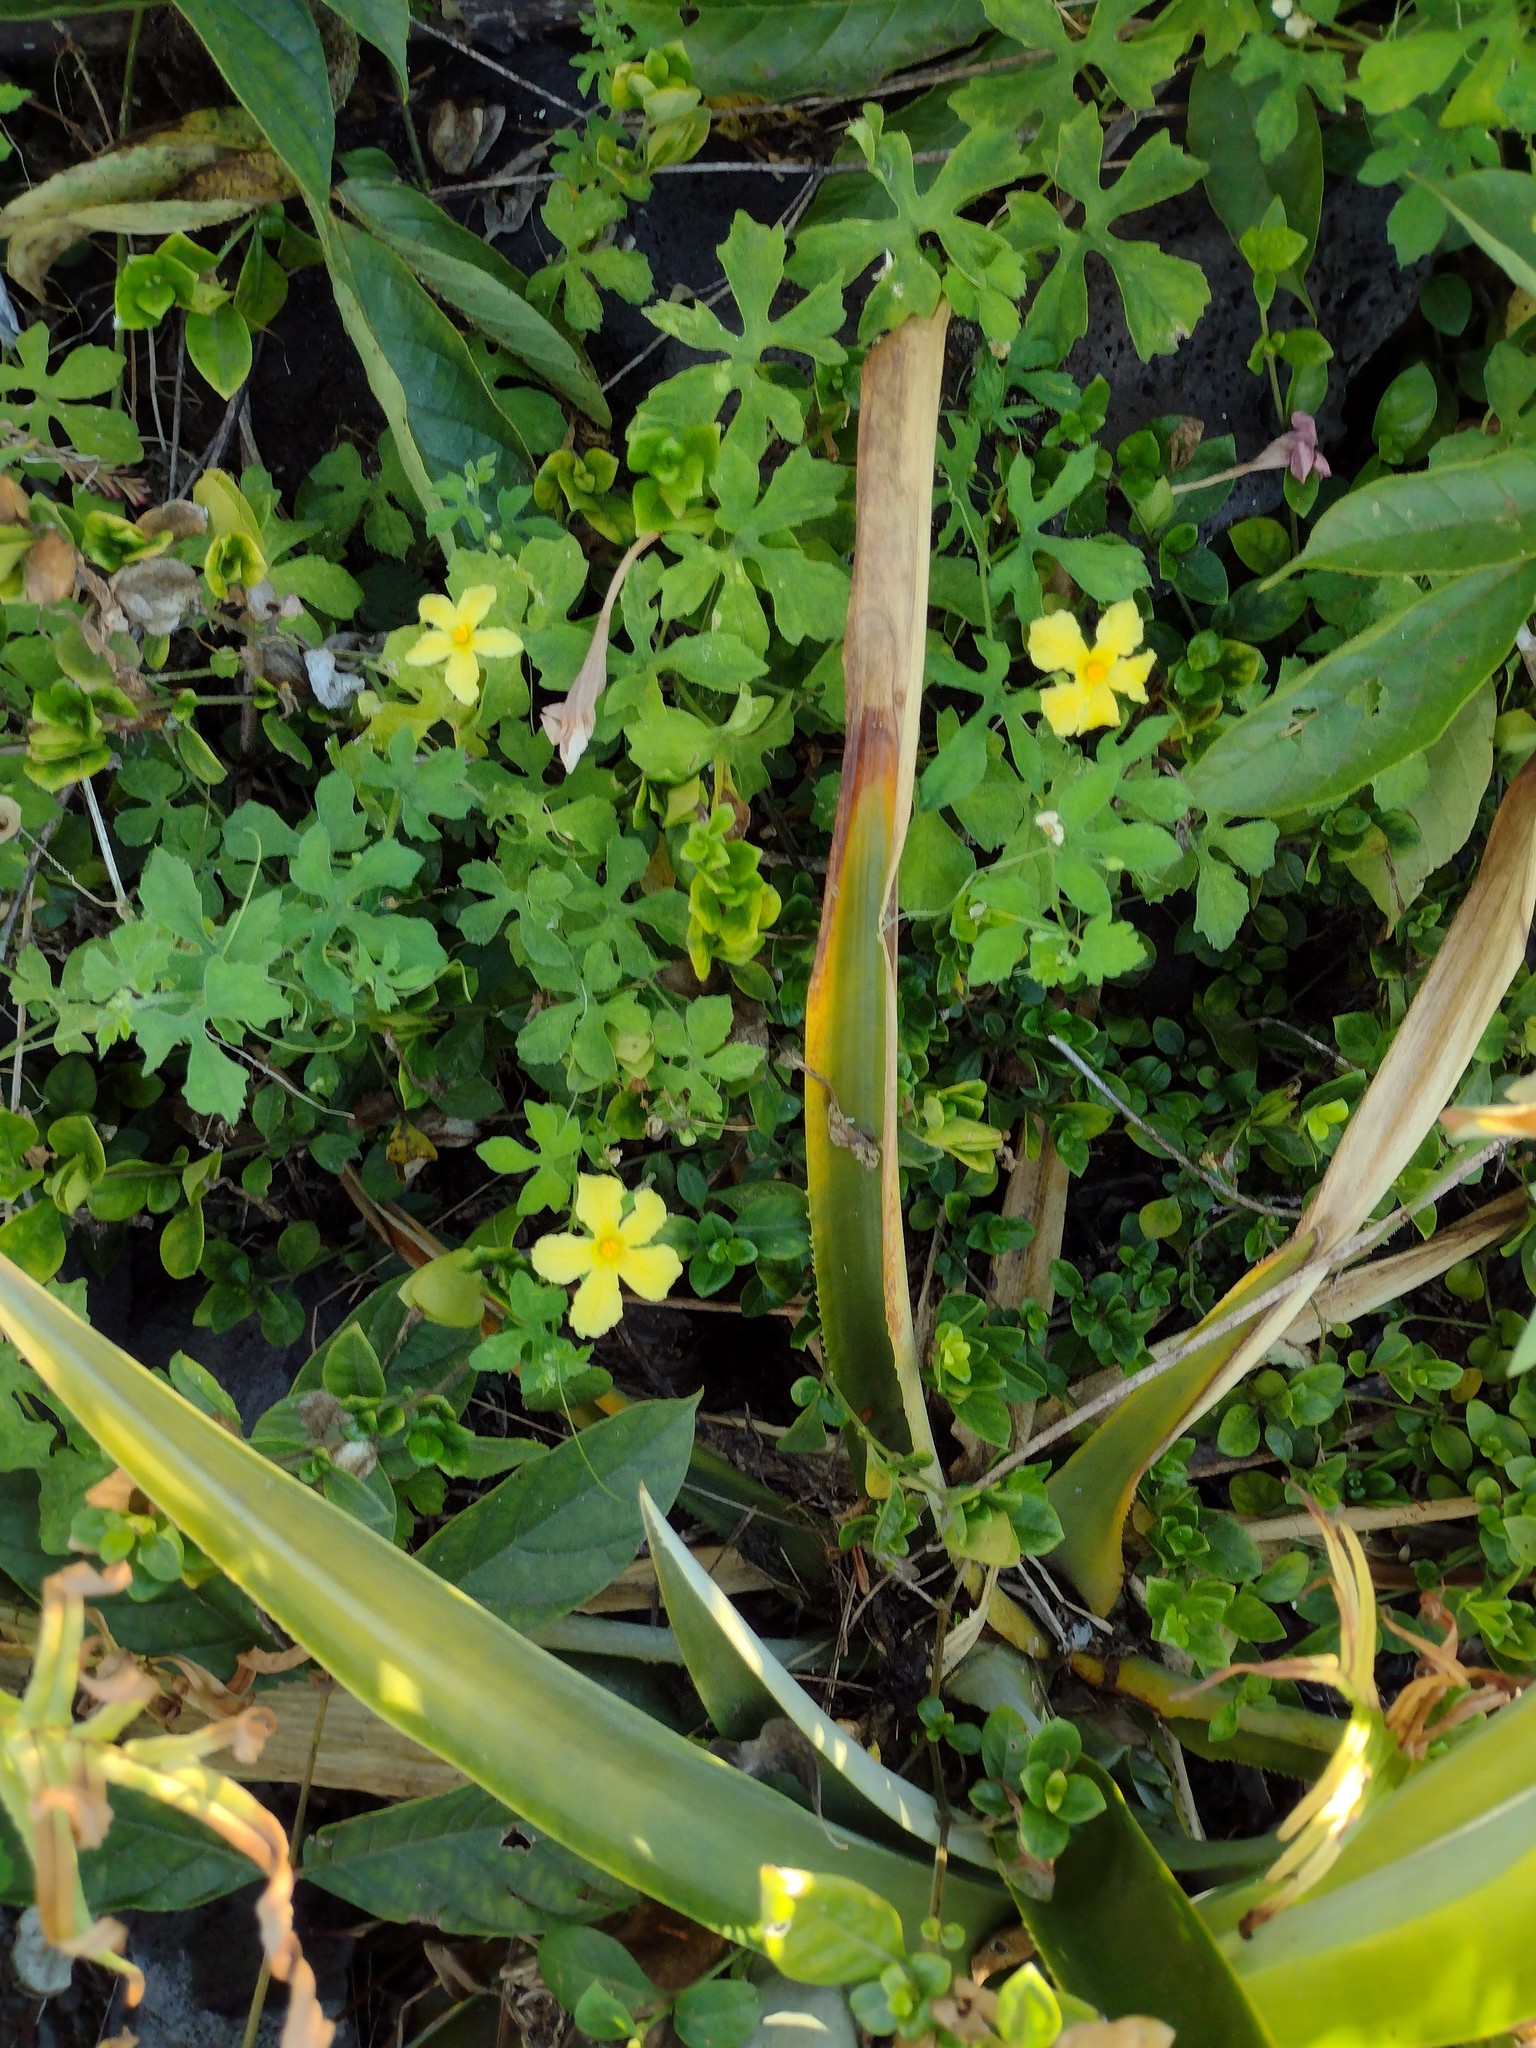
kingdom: Plantae
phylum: Tracheophyta
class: Magnoliopsida
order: Cucurbitales
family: Cucurbitaceae
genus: Momordica
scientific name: Momordica charantia
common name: Balsampear
